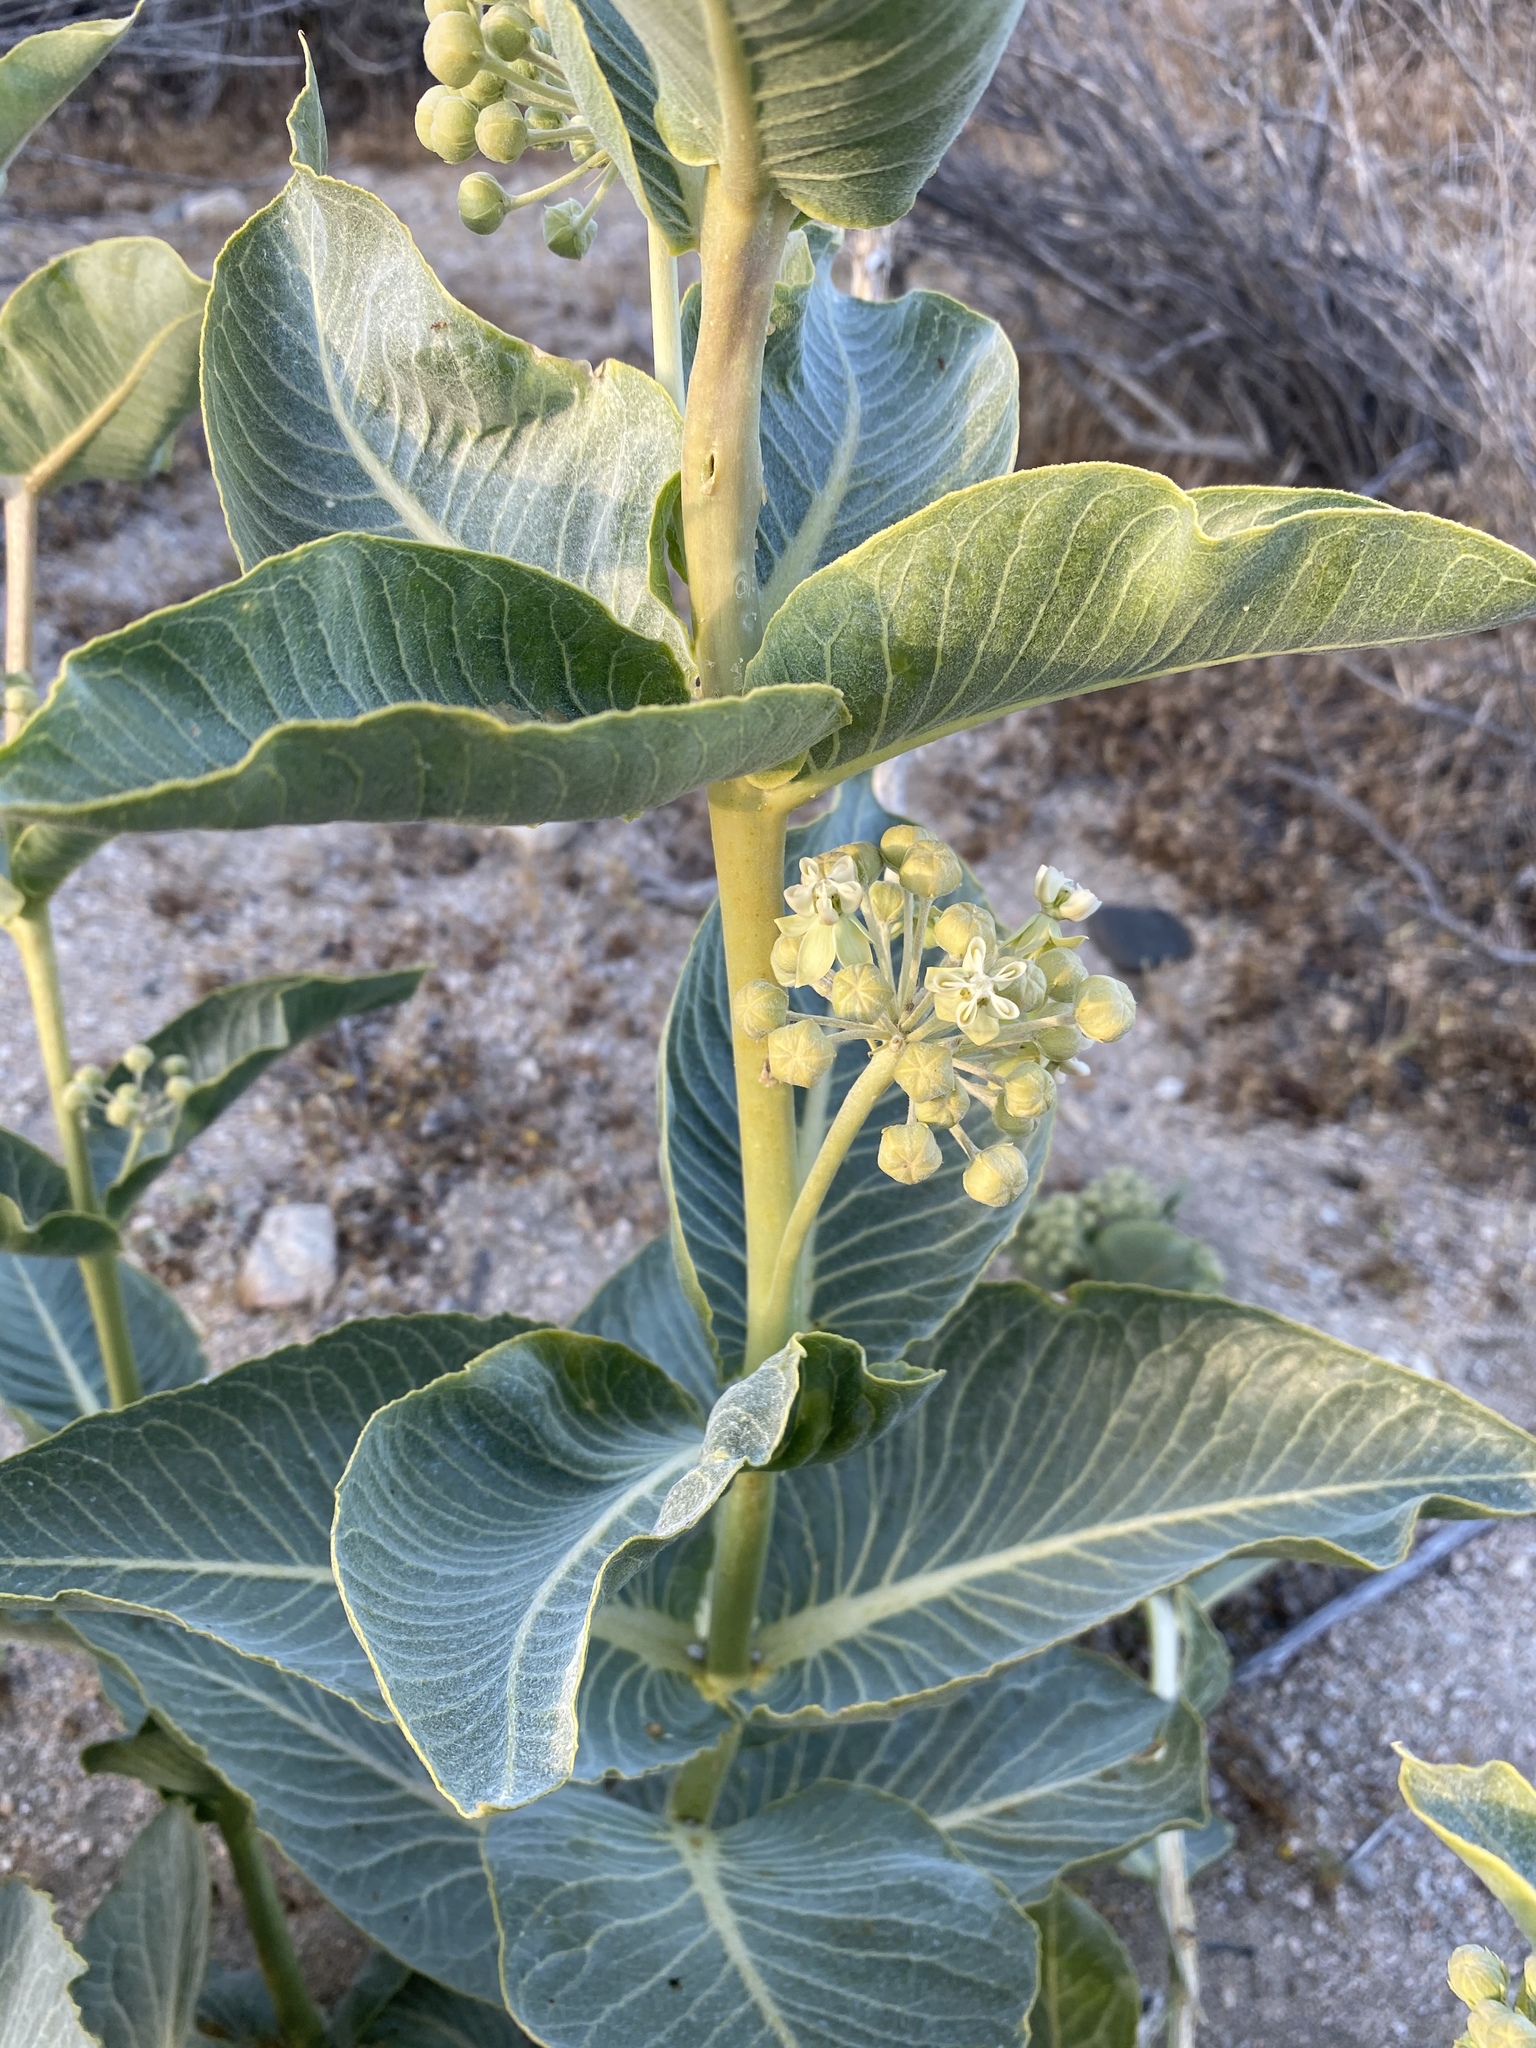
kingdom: Plantae
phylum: Tracheophyta
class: Magnoliopsida
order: Gentianales
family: Apocynaceae
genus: Asclepias
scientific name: Asclepias erosa
